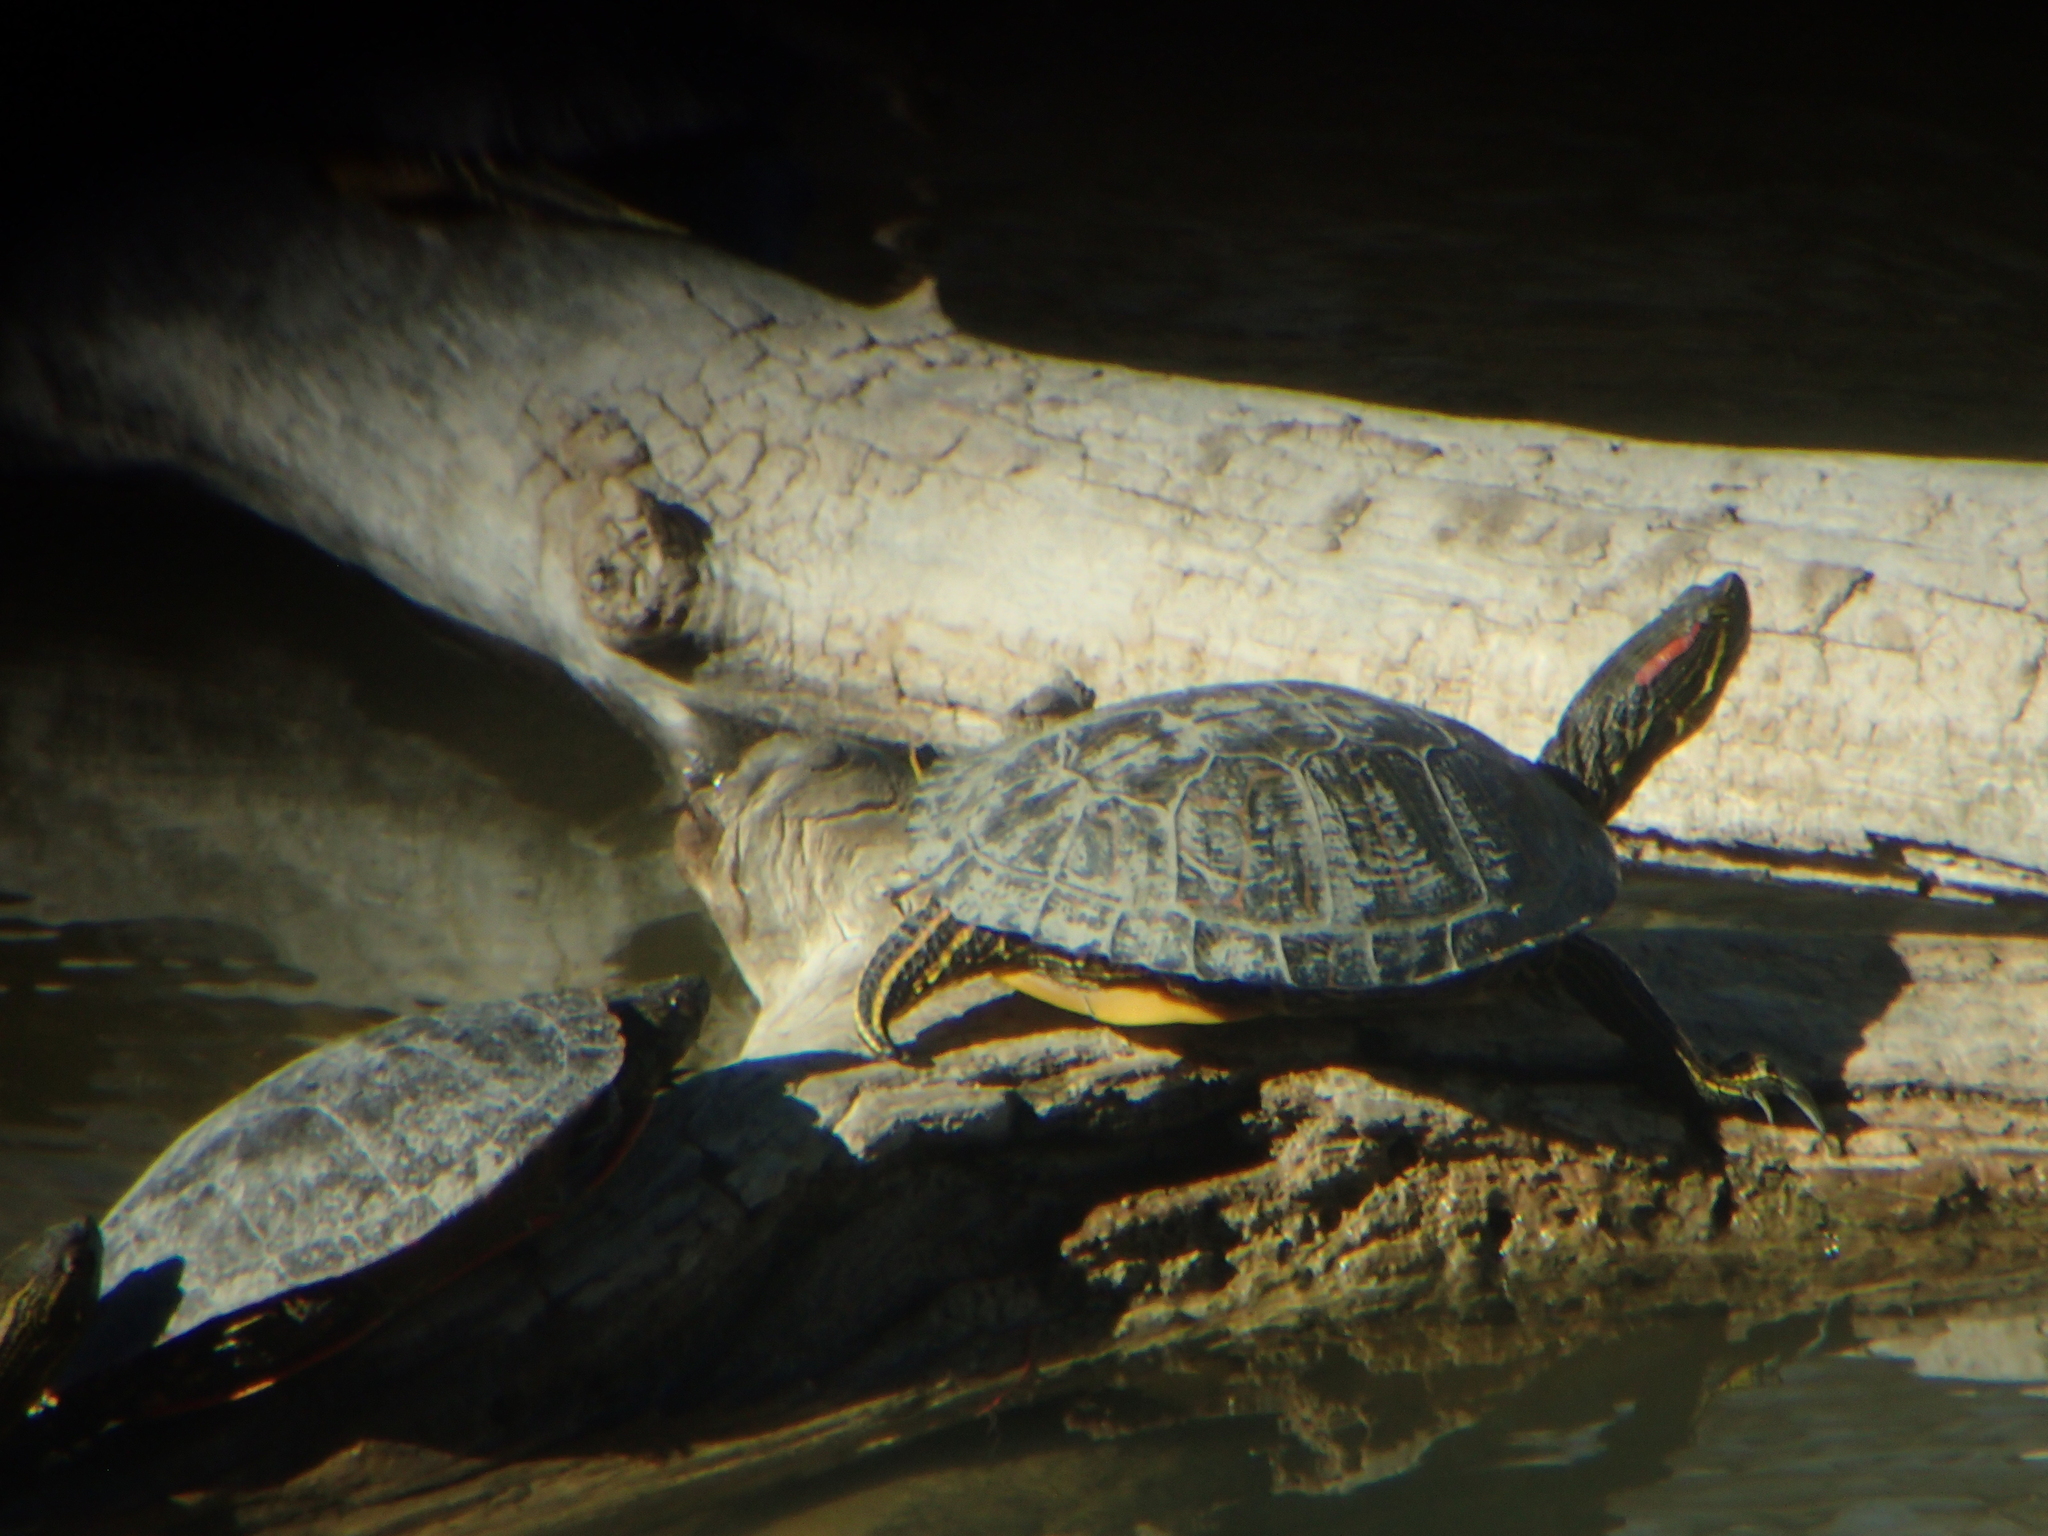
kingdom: Animalia
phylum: Chordata
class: Testudines
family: Emydidae
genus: Trachemys
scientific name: Trachemys scripta
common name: Slider
